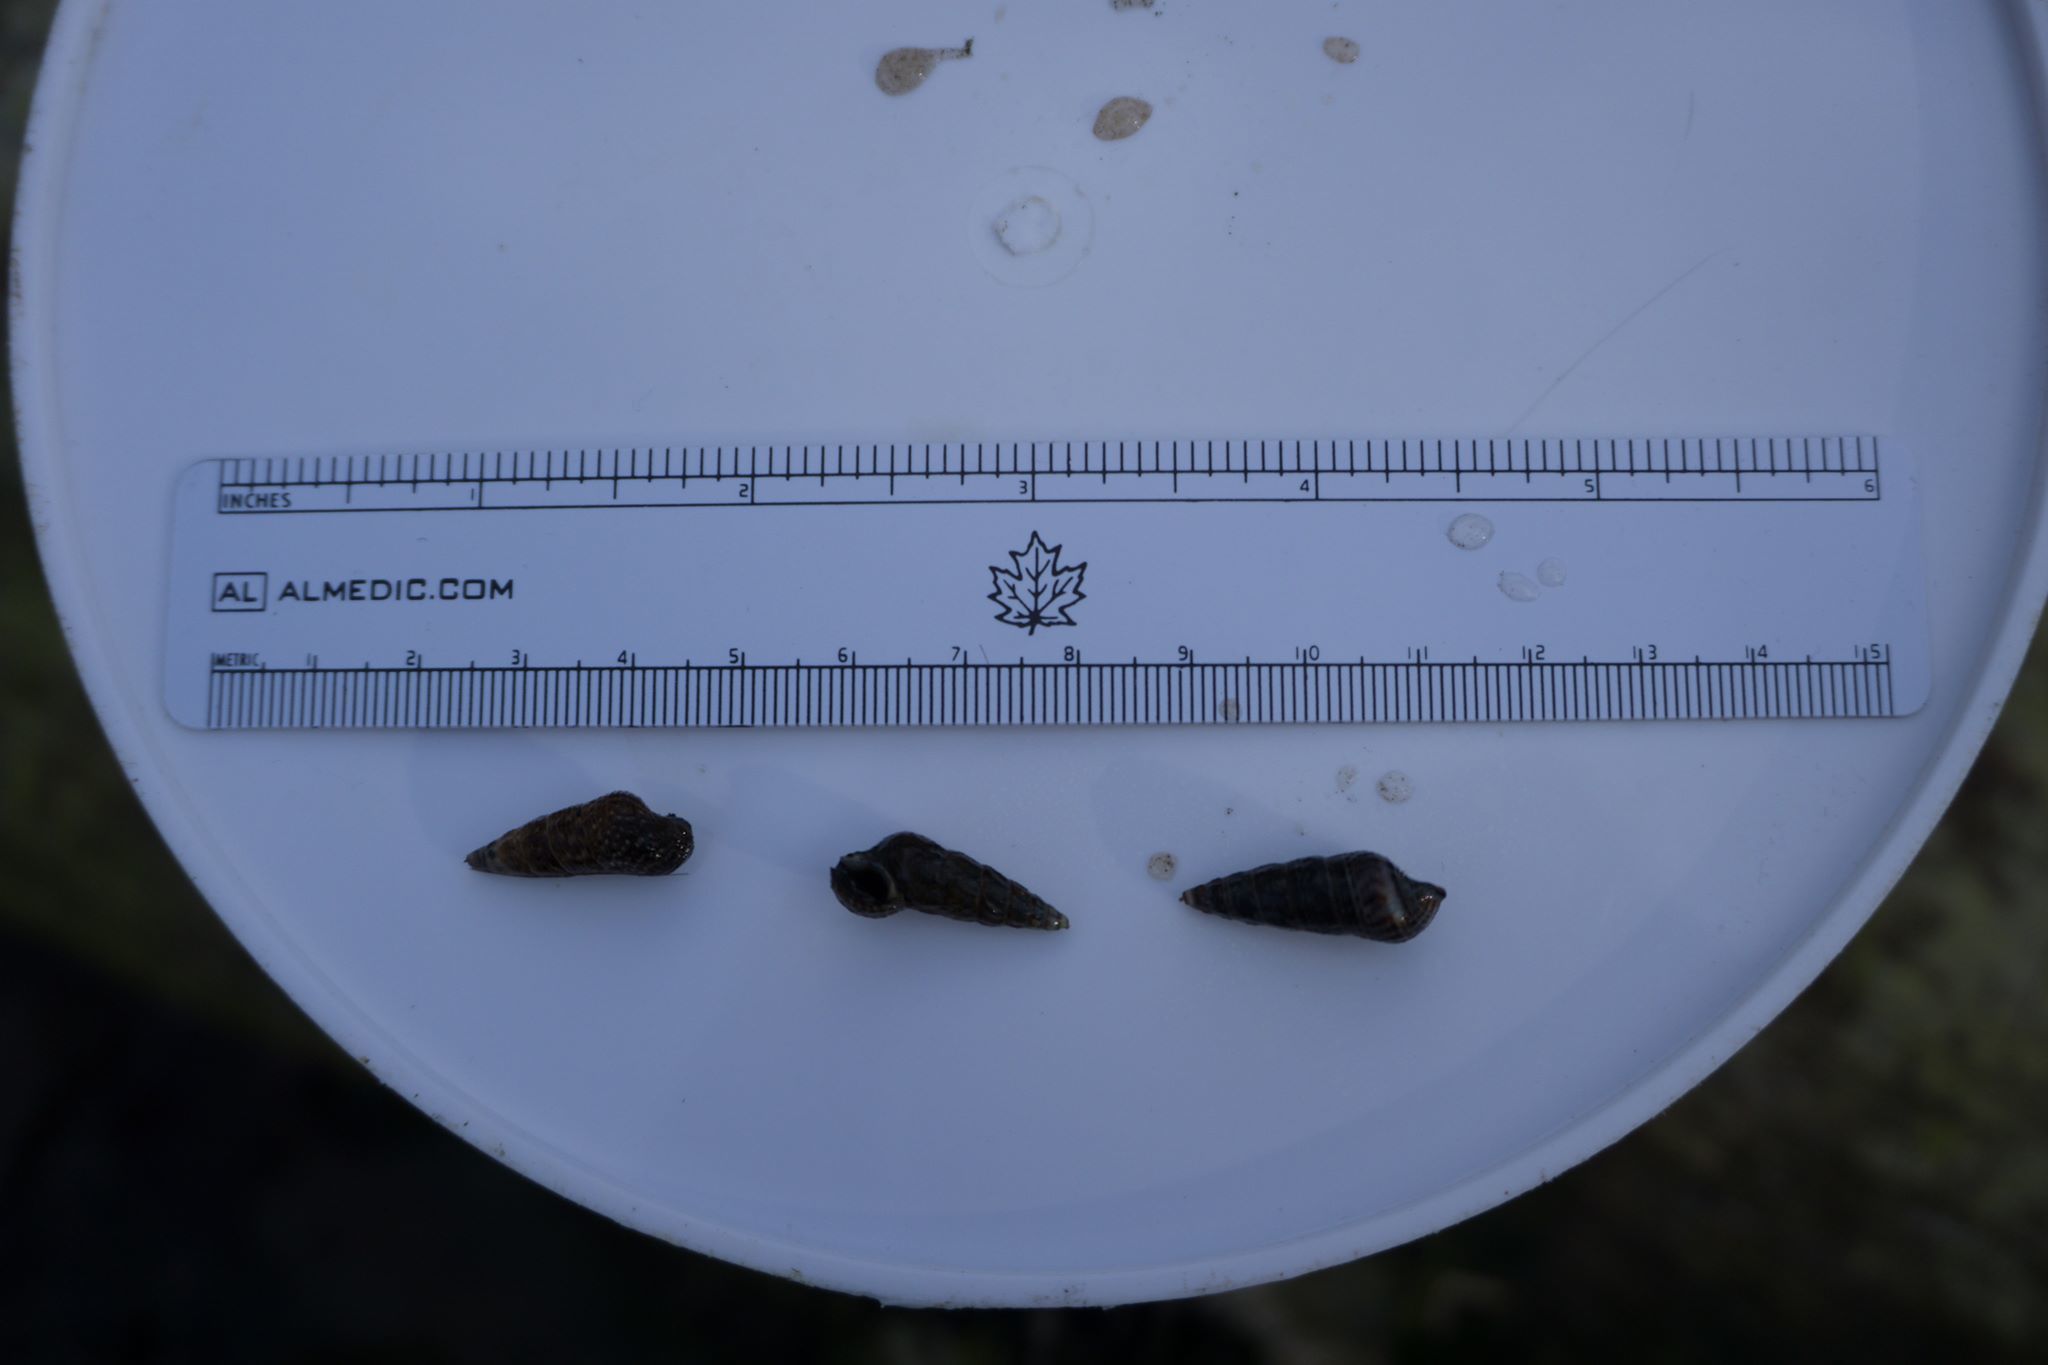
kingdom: Animalia
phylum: Mollusca
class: Gastropoda
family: Batillariidae
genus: Batillaria
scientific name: Batillaria attramentaria
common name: Japanese false cerith
